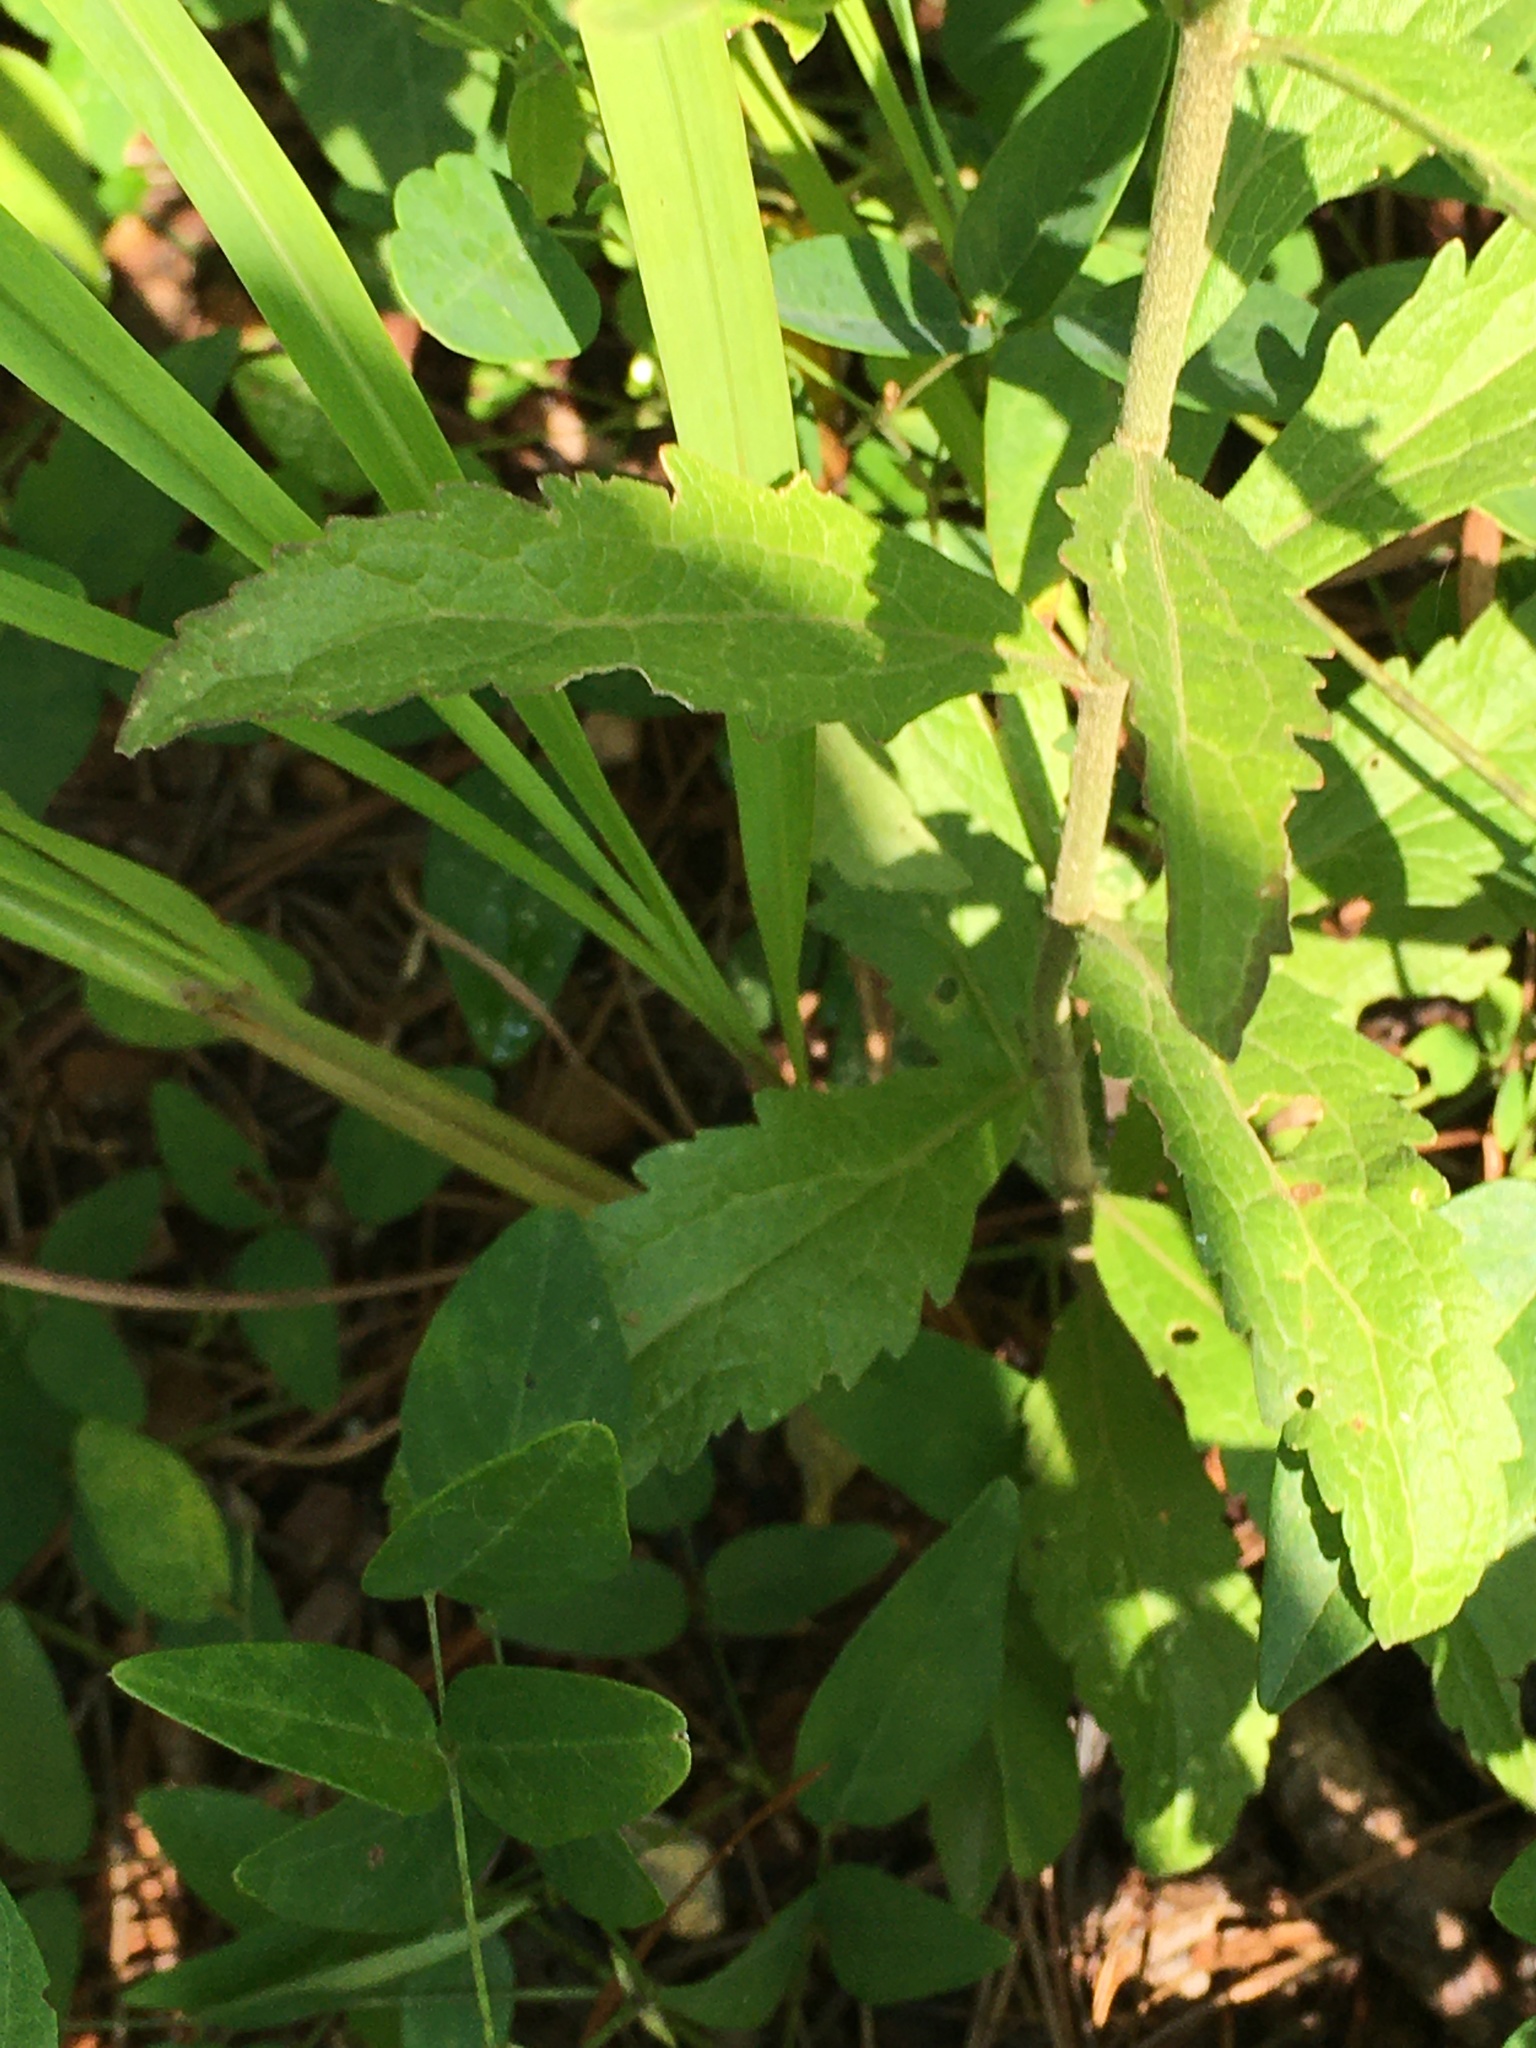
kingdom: Plantae
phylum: Tracheophyta
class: Magnoliopsida
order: Asterales
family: Asteraceae
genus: Eupatorium
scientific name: Eupatorium album
